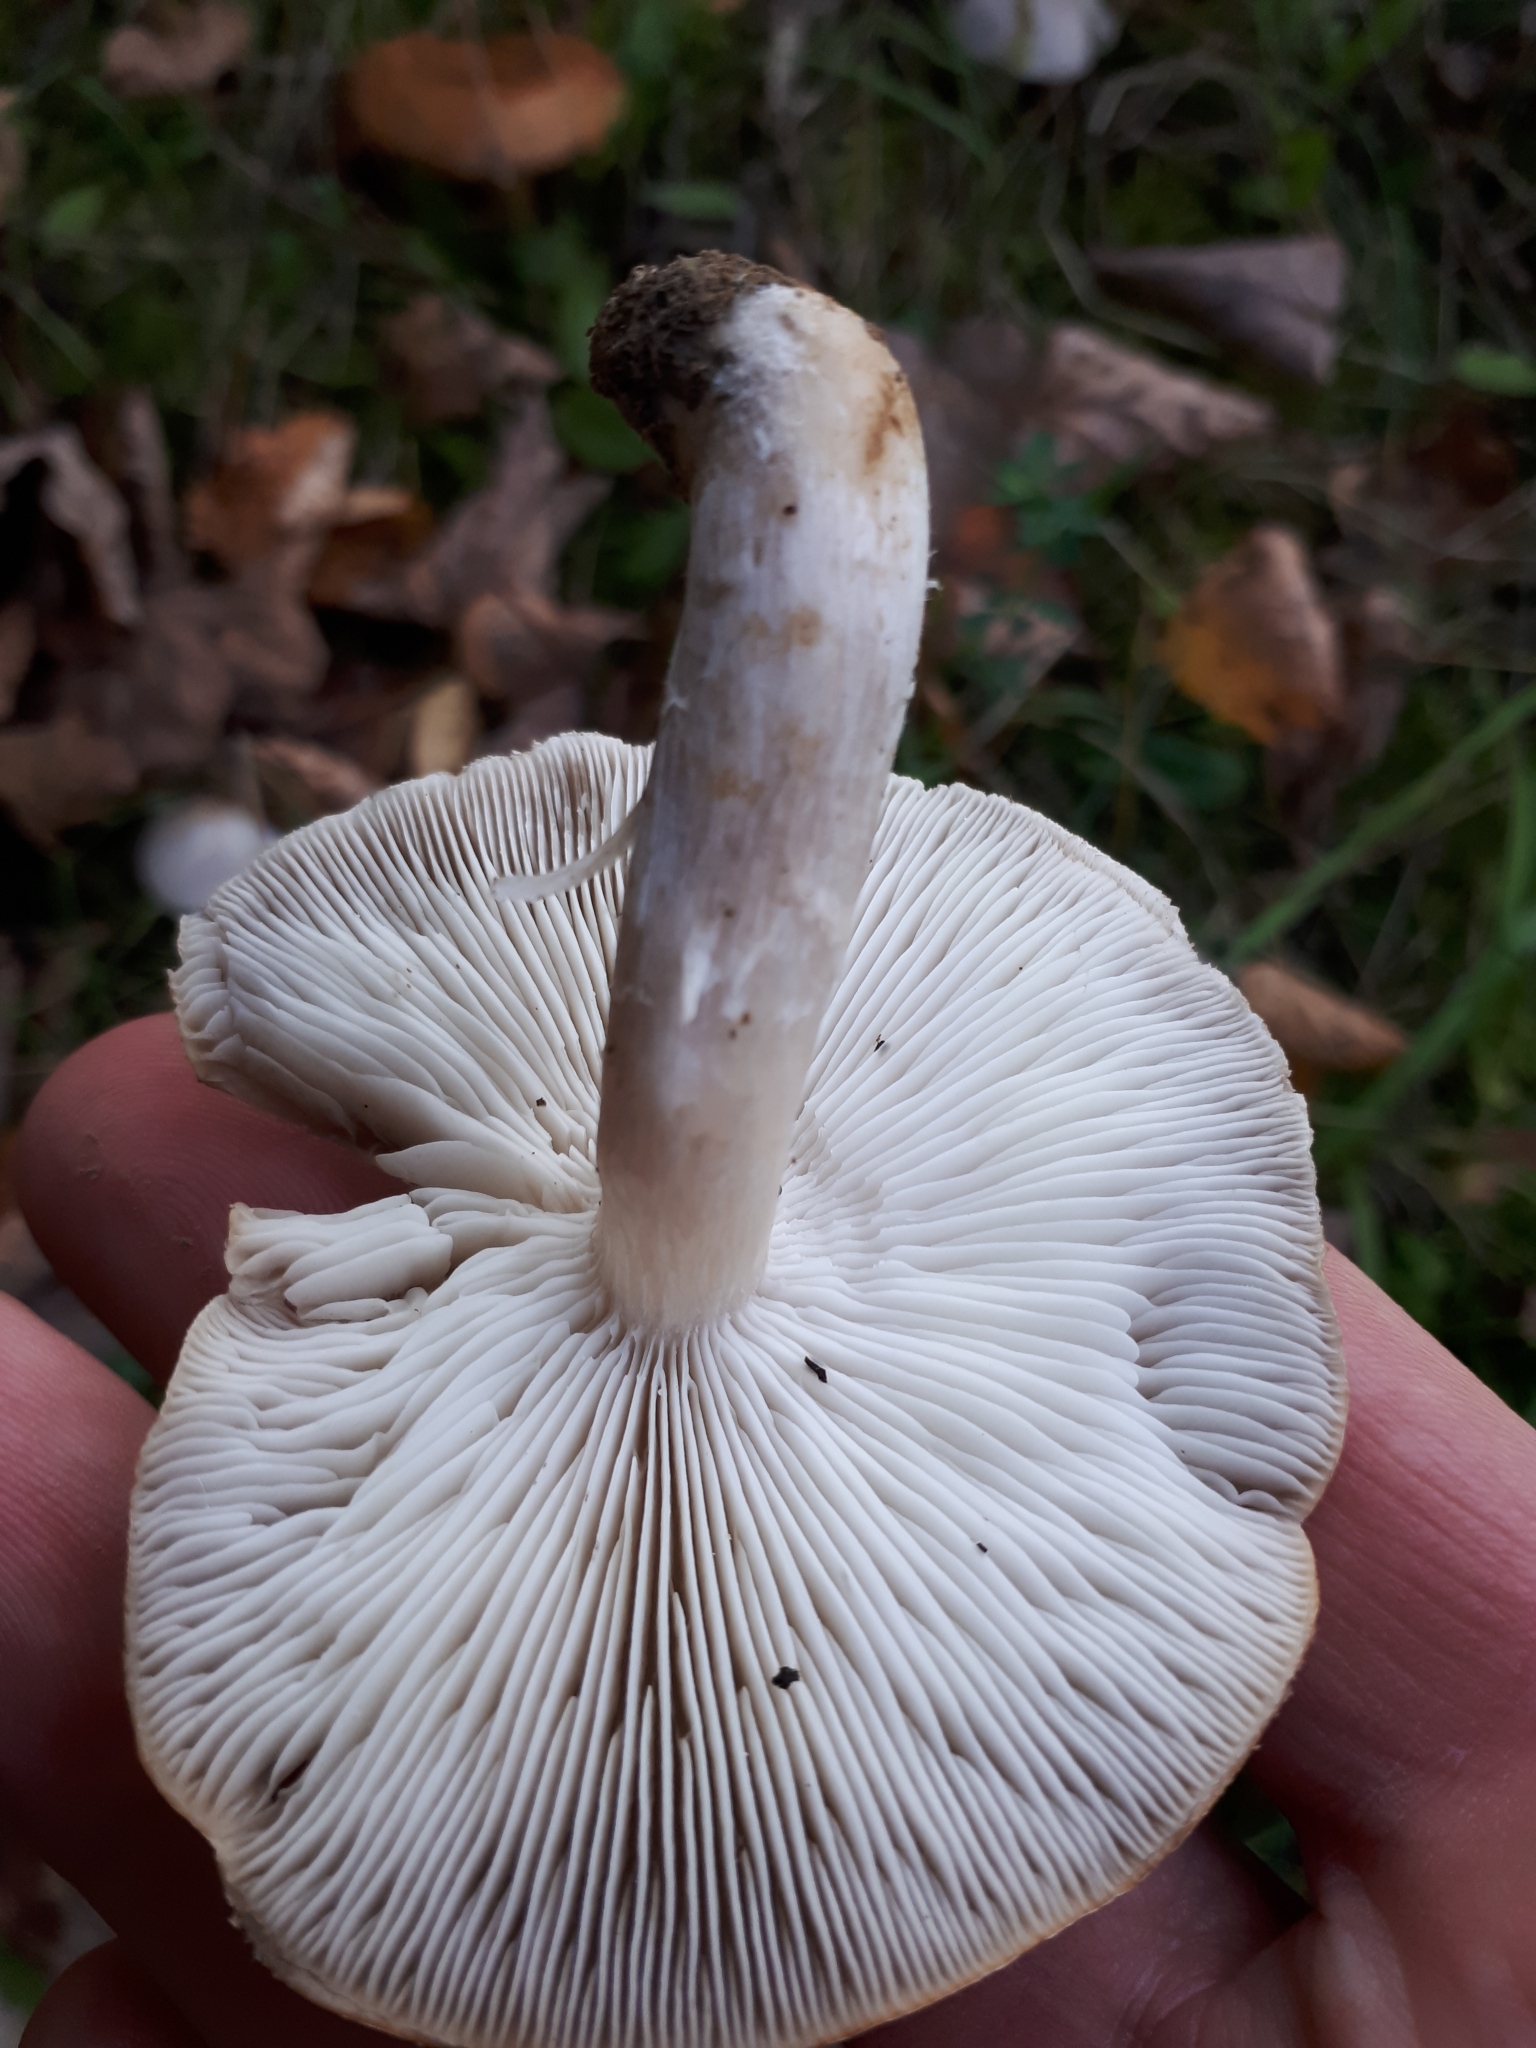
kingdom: Fungi
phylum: Basidiomycota
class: Agaricomycetes
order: Agaricales
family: Tricholomataceae
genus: Tricholoma
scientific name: Tricholoma scalpturatum
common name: Yellowing knight
